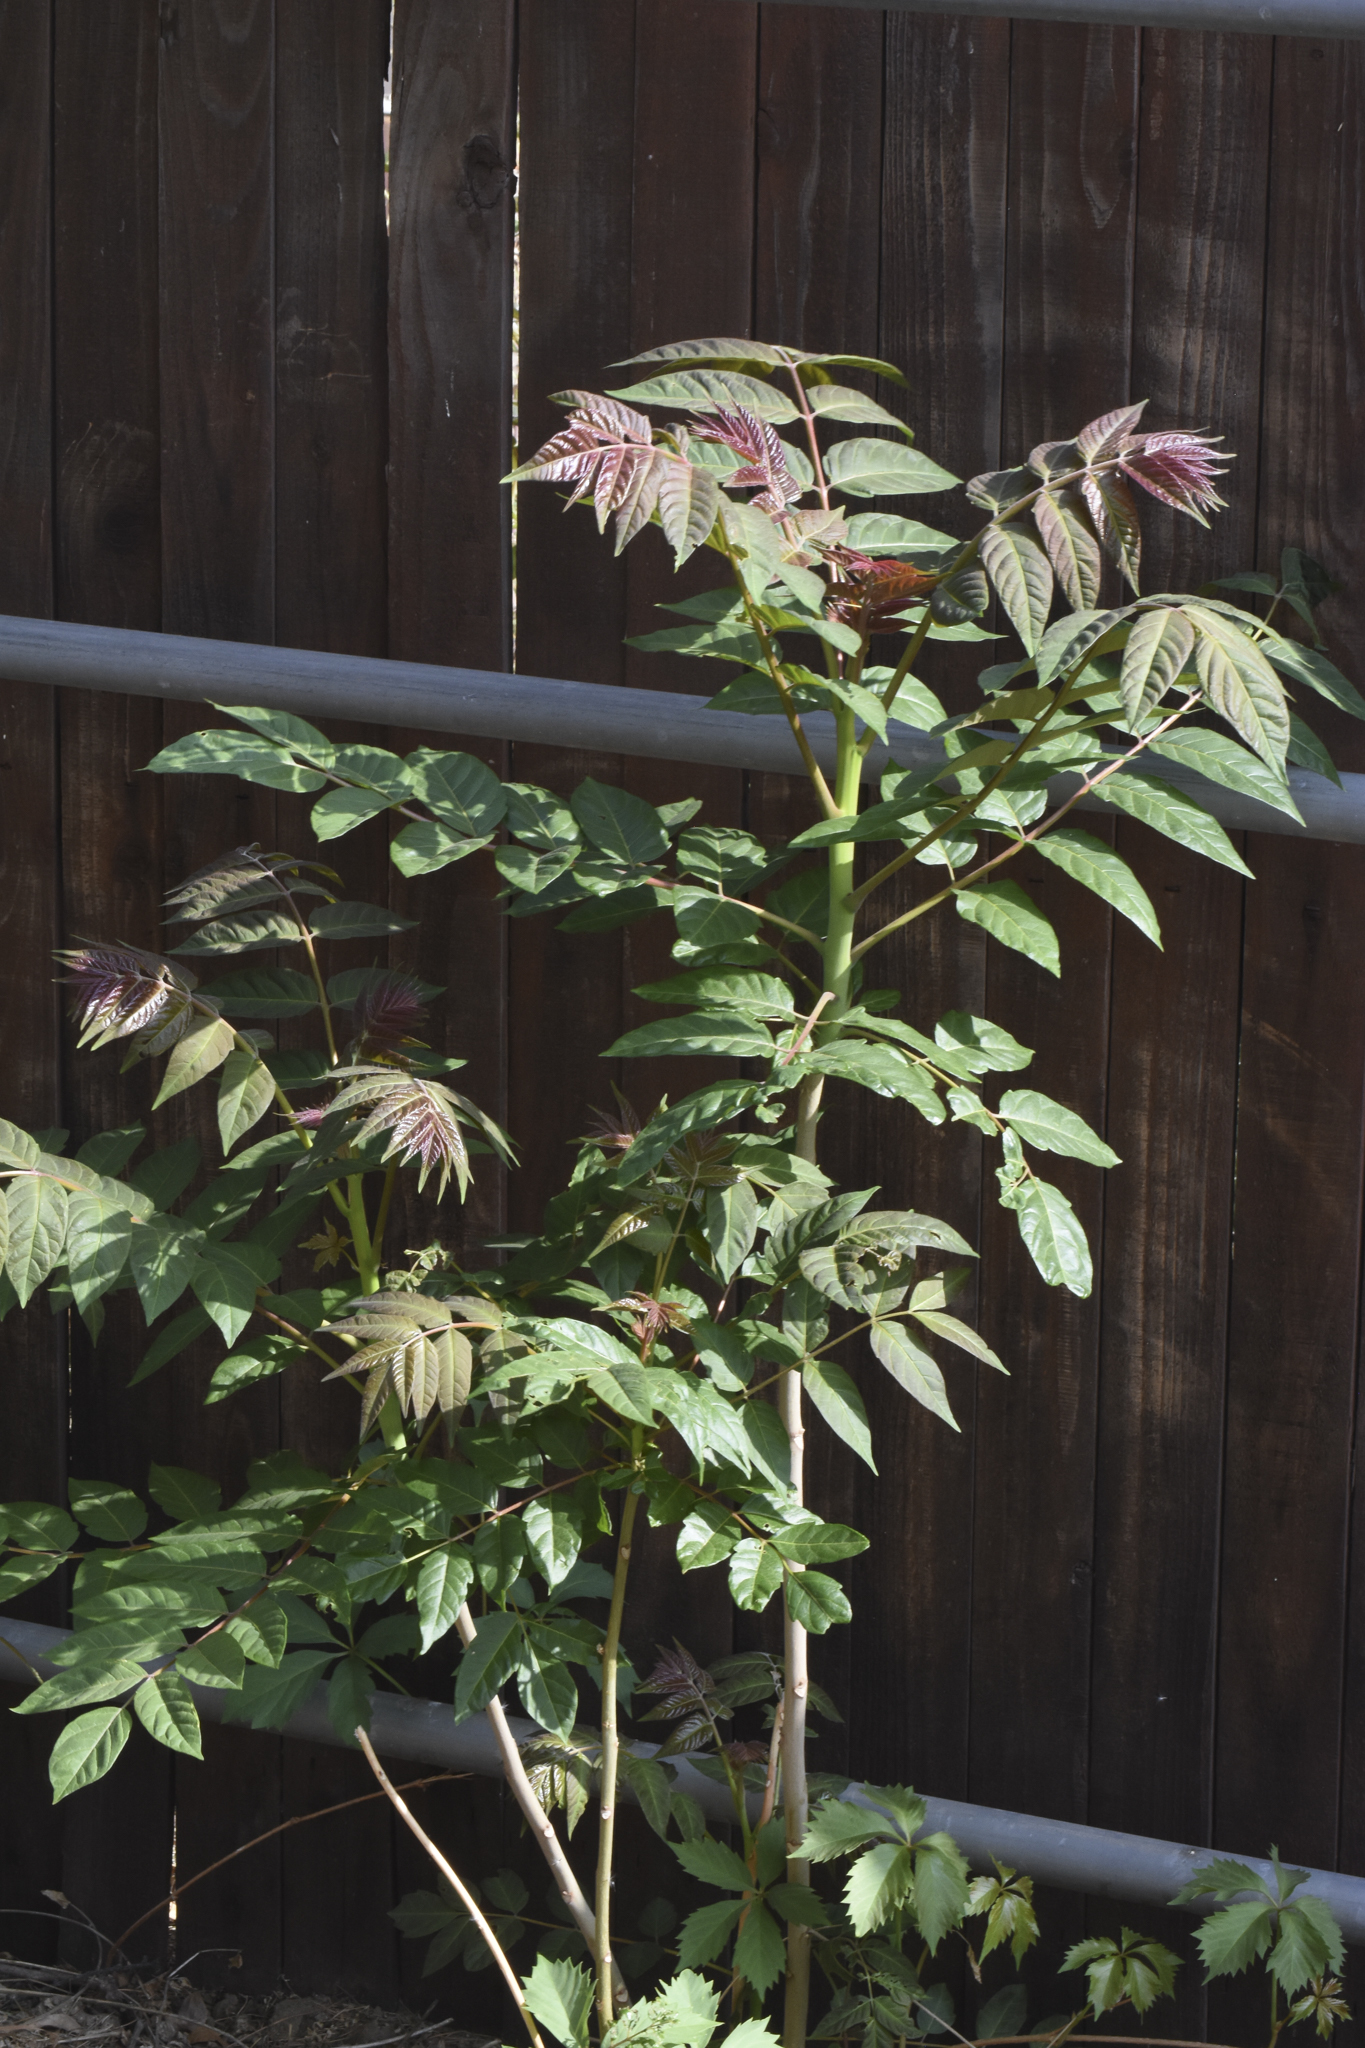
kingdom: Plantae
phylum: Tracheophyta
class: Magnoliopsida
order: Sapindales
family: Simaroubaceae
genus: Ailanthus
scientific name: Ailanthus altissima
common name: Tree-of-heaven
